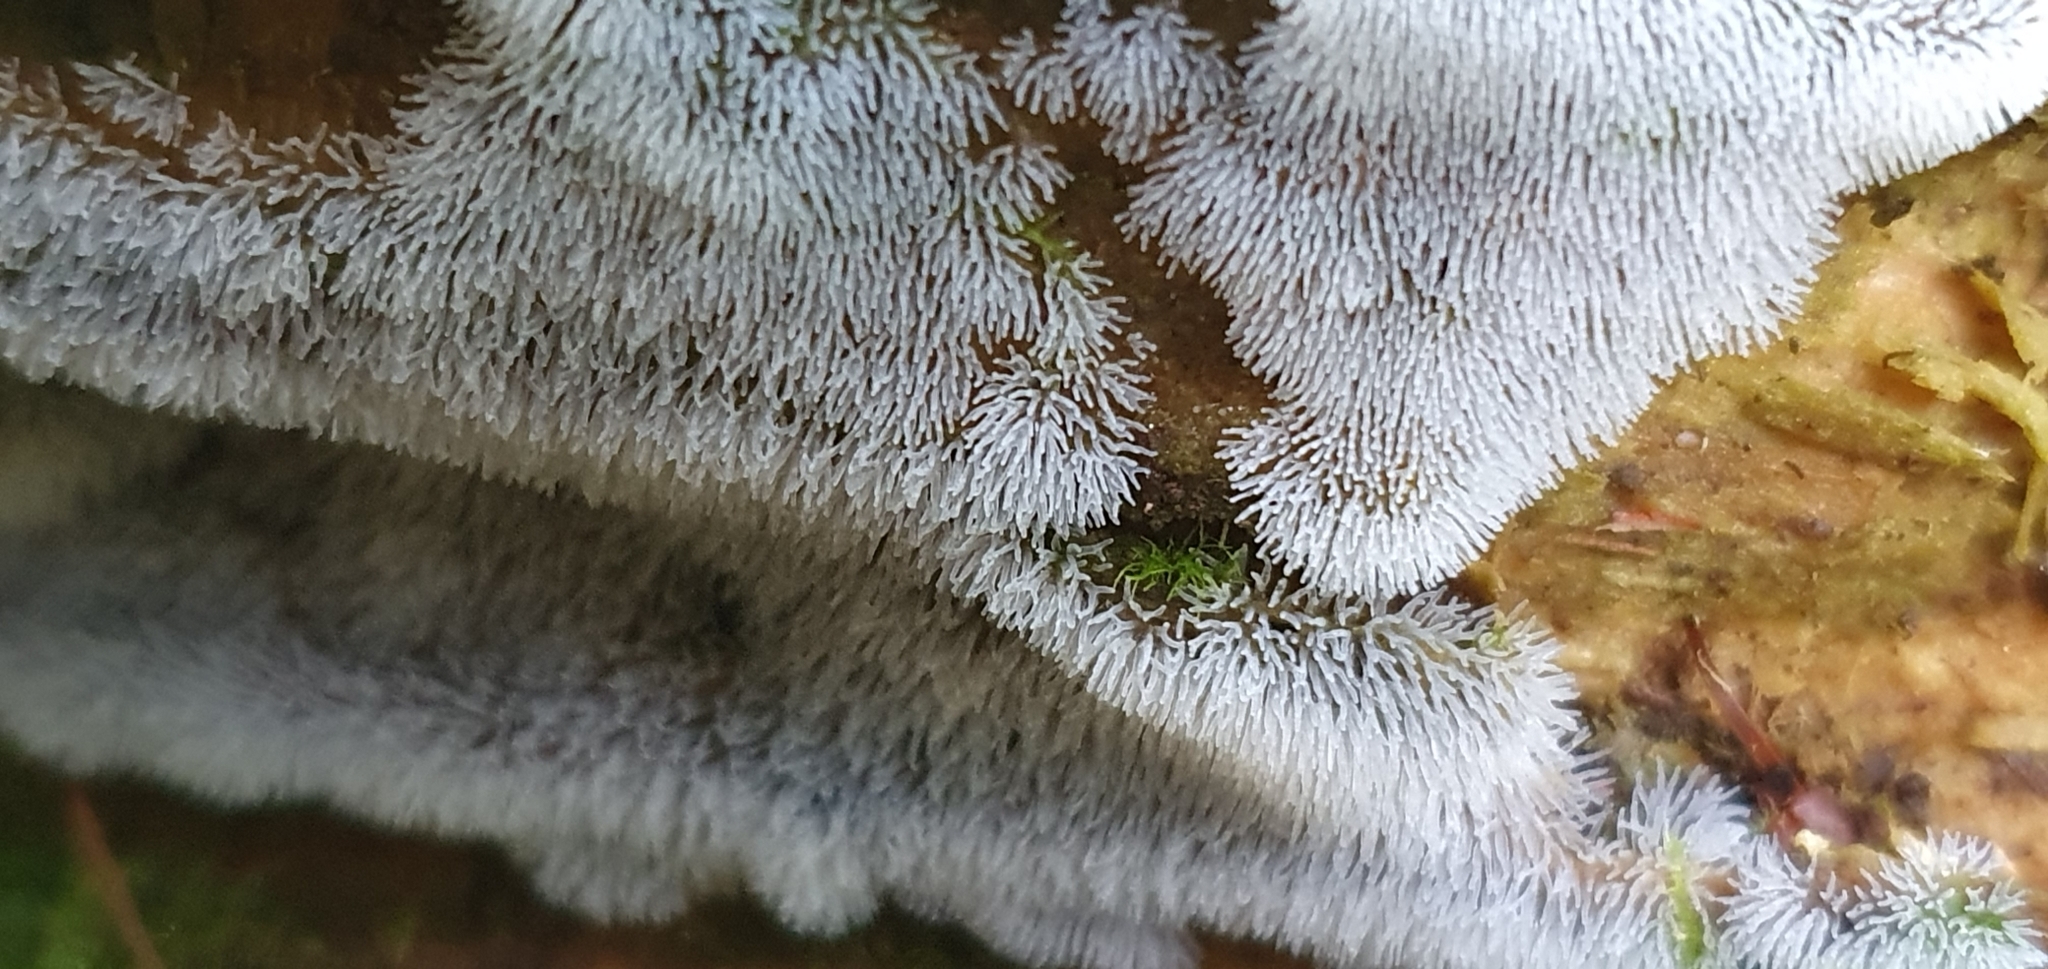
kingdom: Protozoa
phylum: Mycetozoa
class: Protosteliomycetes
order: Ceratiomyxales
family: Ceratiomyxaceae
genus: Ceratiomyxa
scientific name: Ceratiomyxa fruticulosa
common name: Honeycomb coral slime mold
